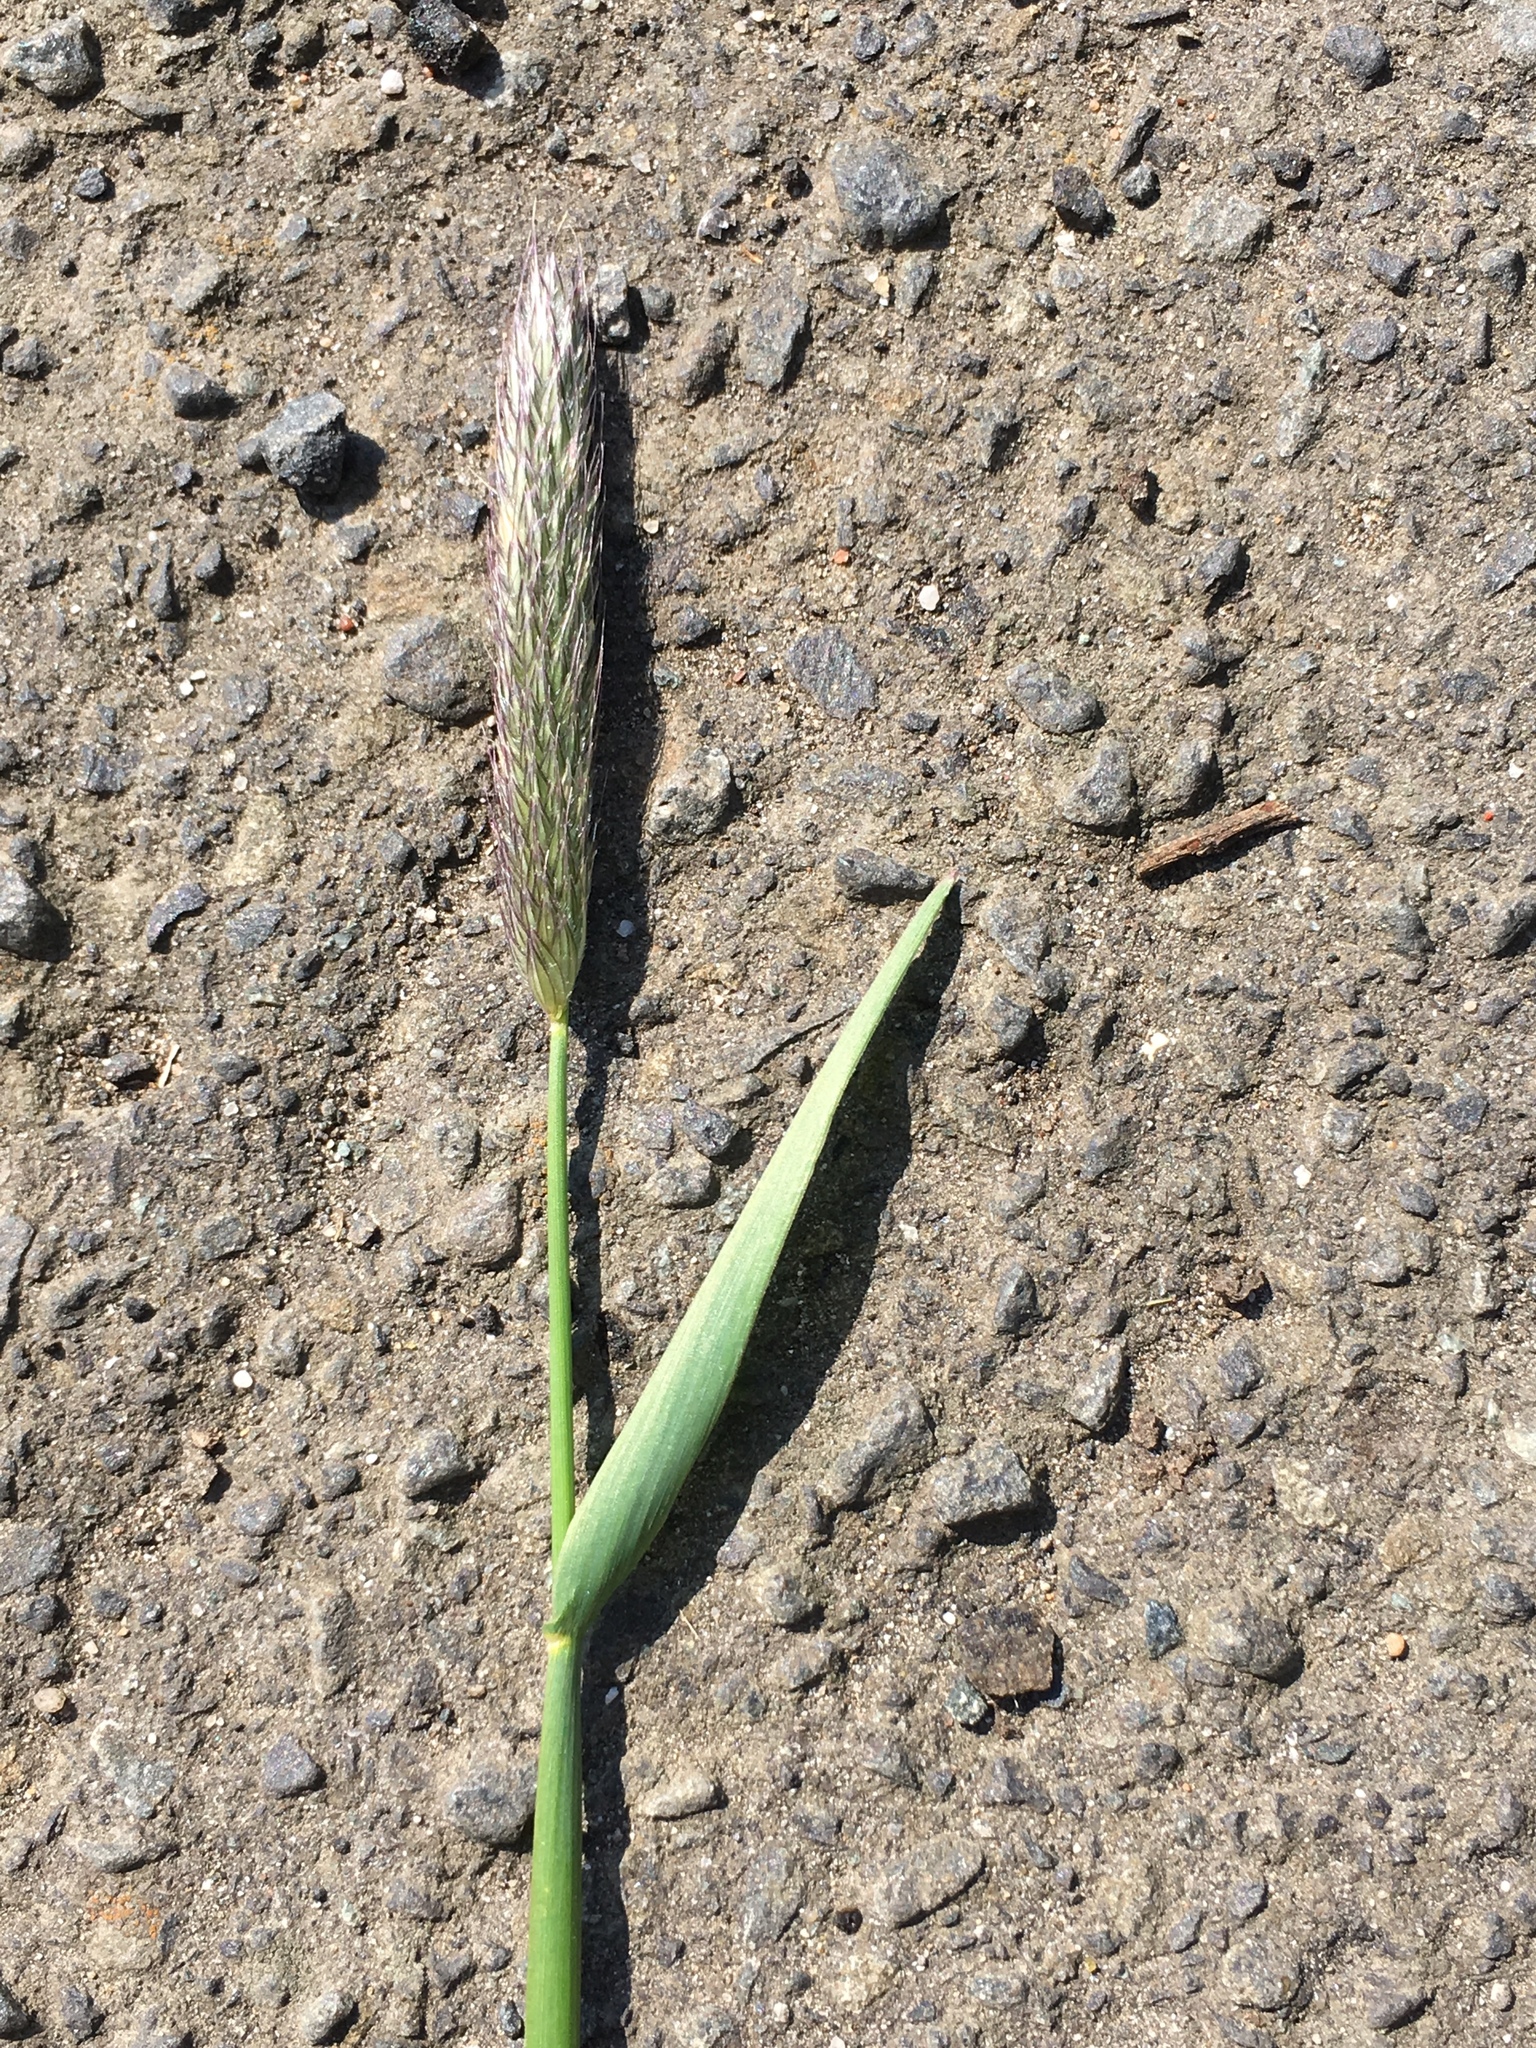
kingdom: Plantae
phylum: Tracheophyta
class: Liliopsida
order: Poales
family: Poaceae
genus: Alopecurus
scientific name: Alopecurus pratensis
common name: Meadow foxtail
